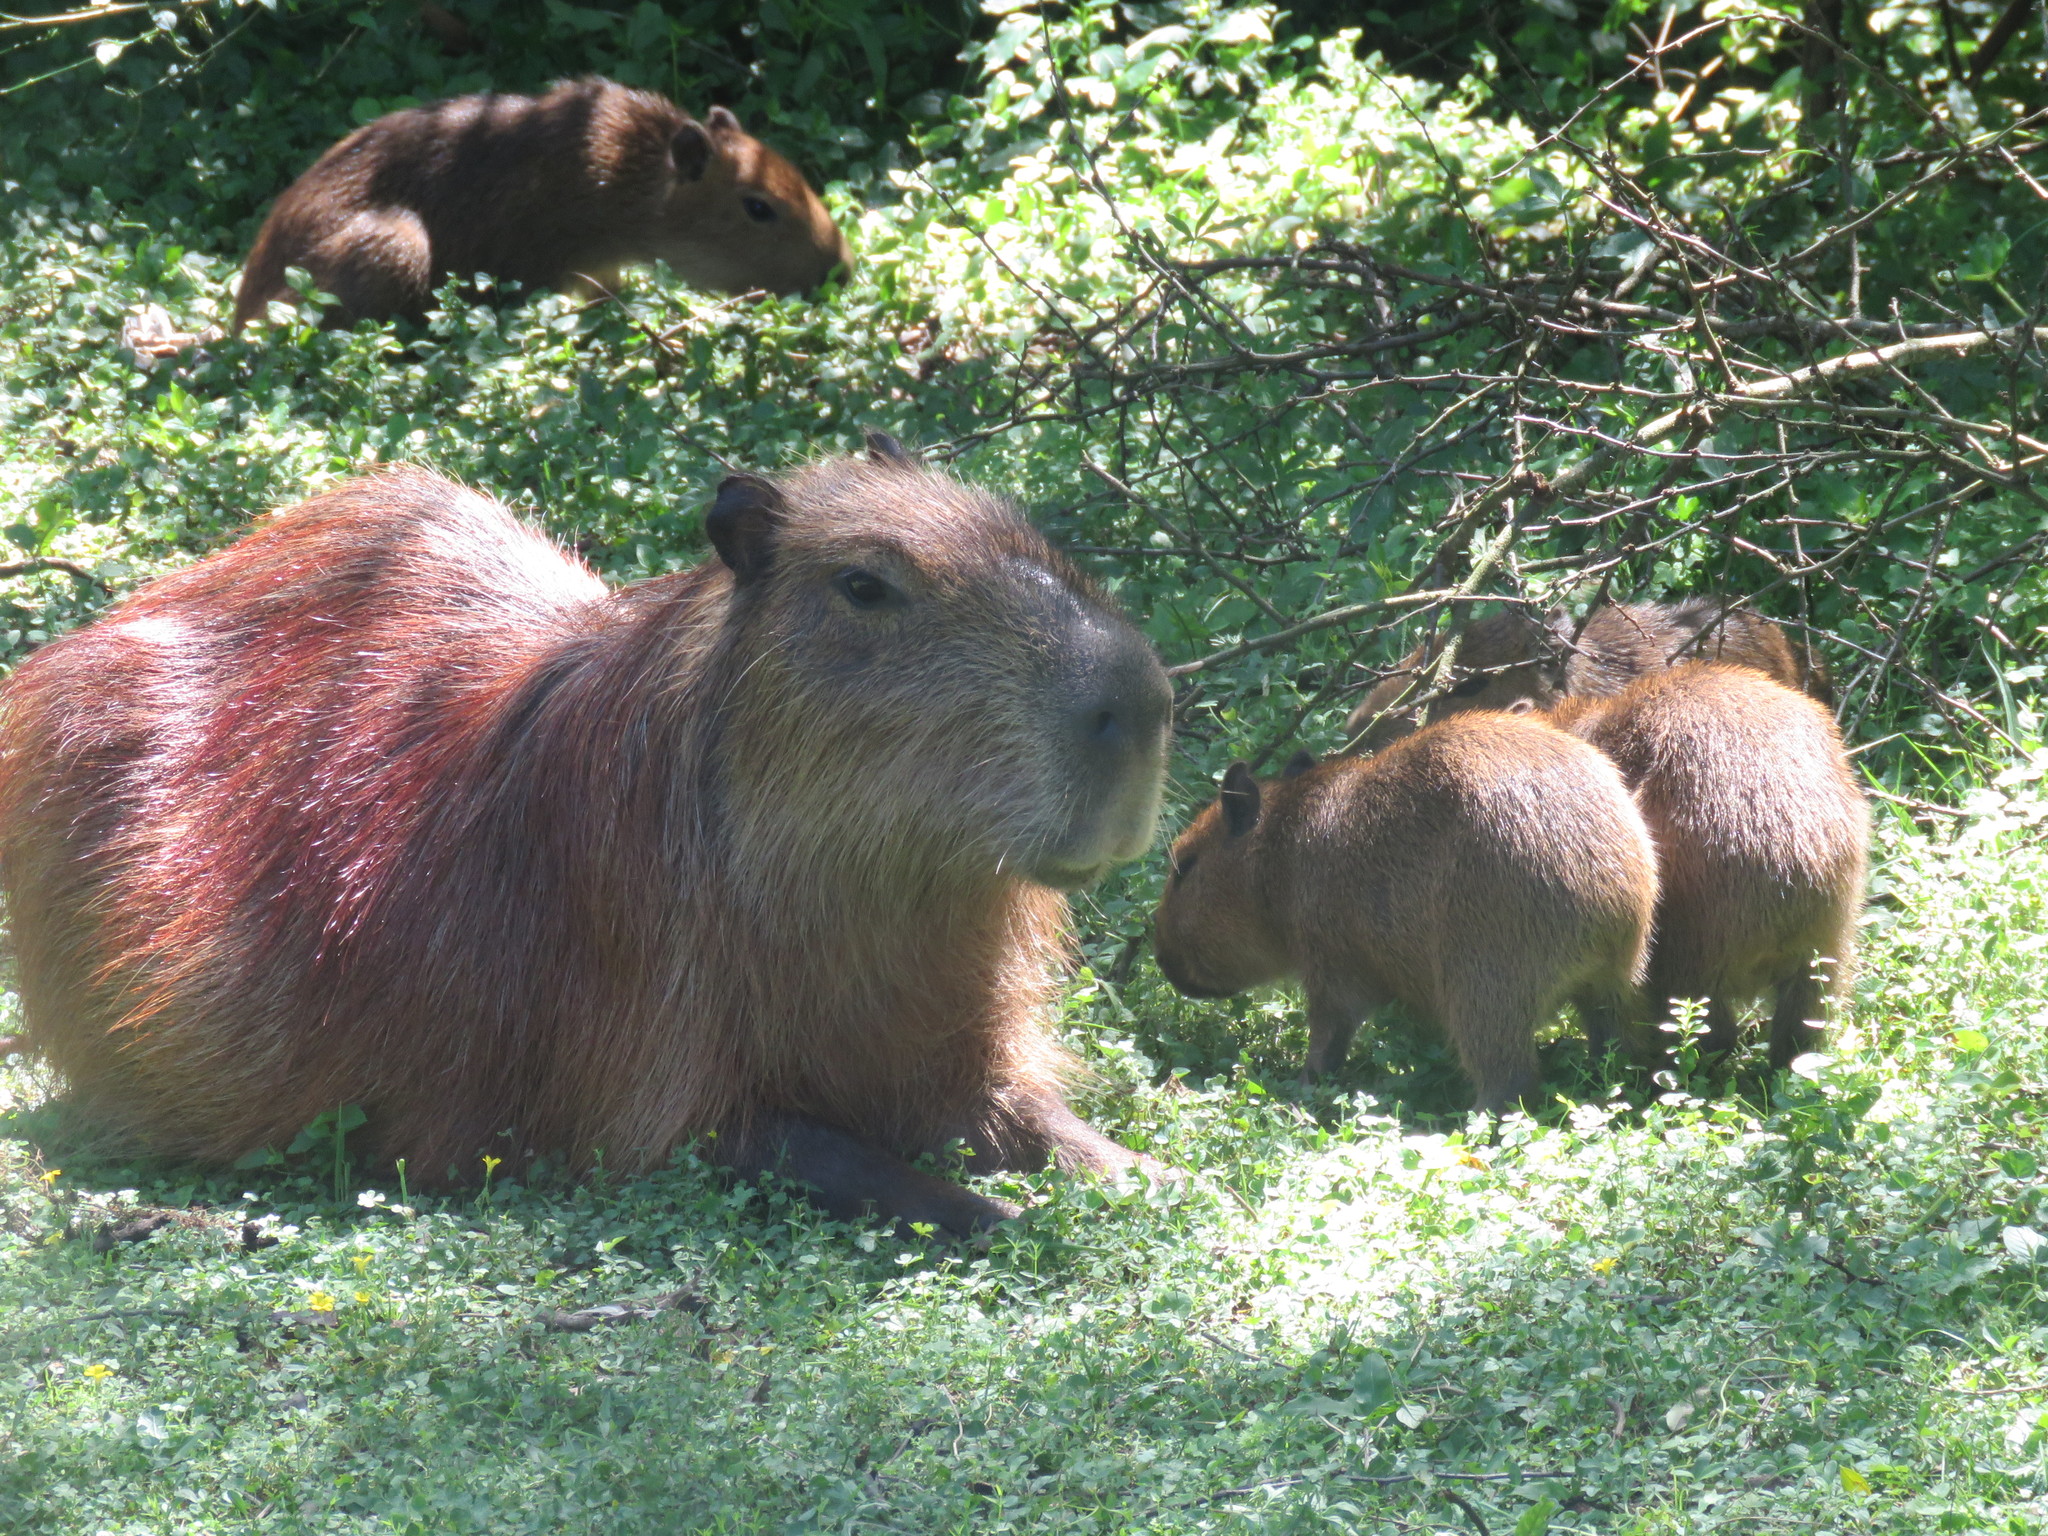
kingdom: Animalia
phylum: Chordata
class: Mammalia
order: Rodentia
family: Caviidae
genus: Hydrochoerus
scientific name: Hydrochoerus hydrochaeris
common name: Capybara
